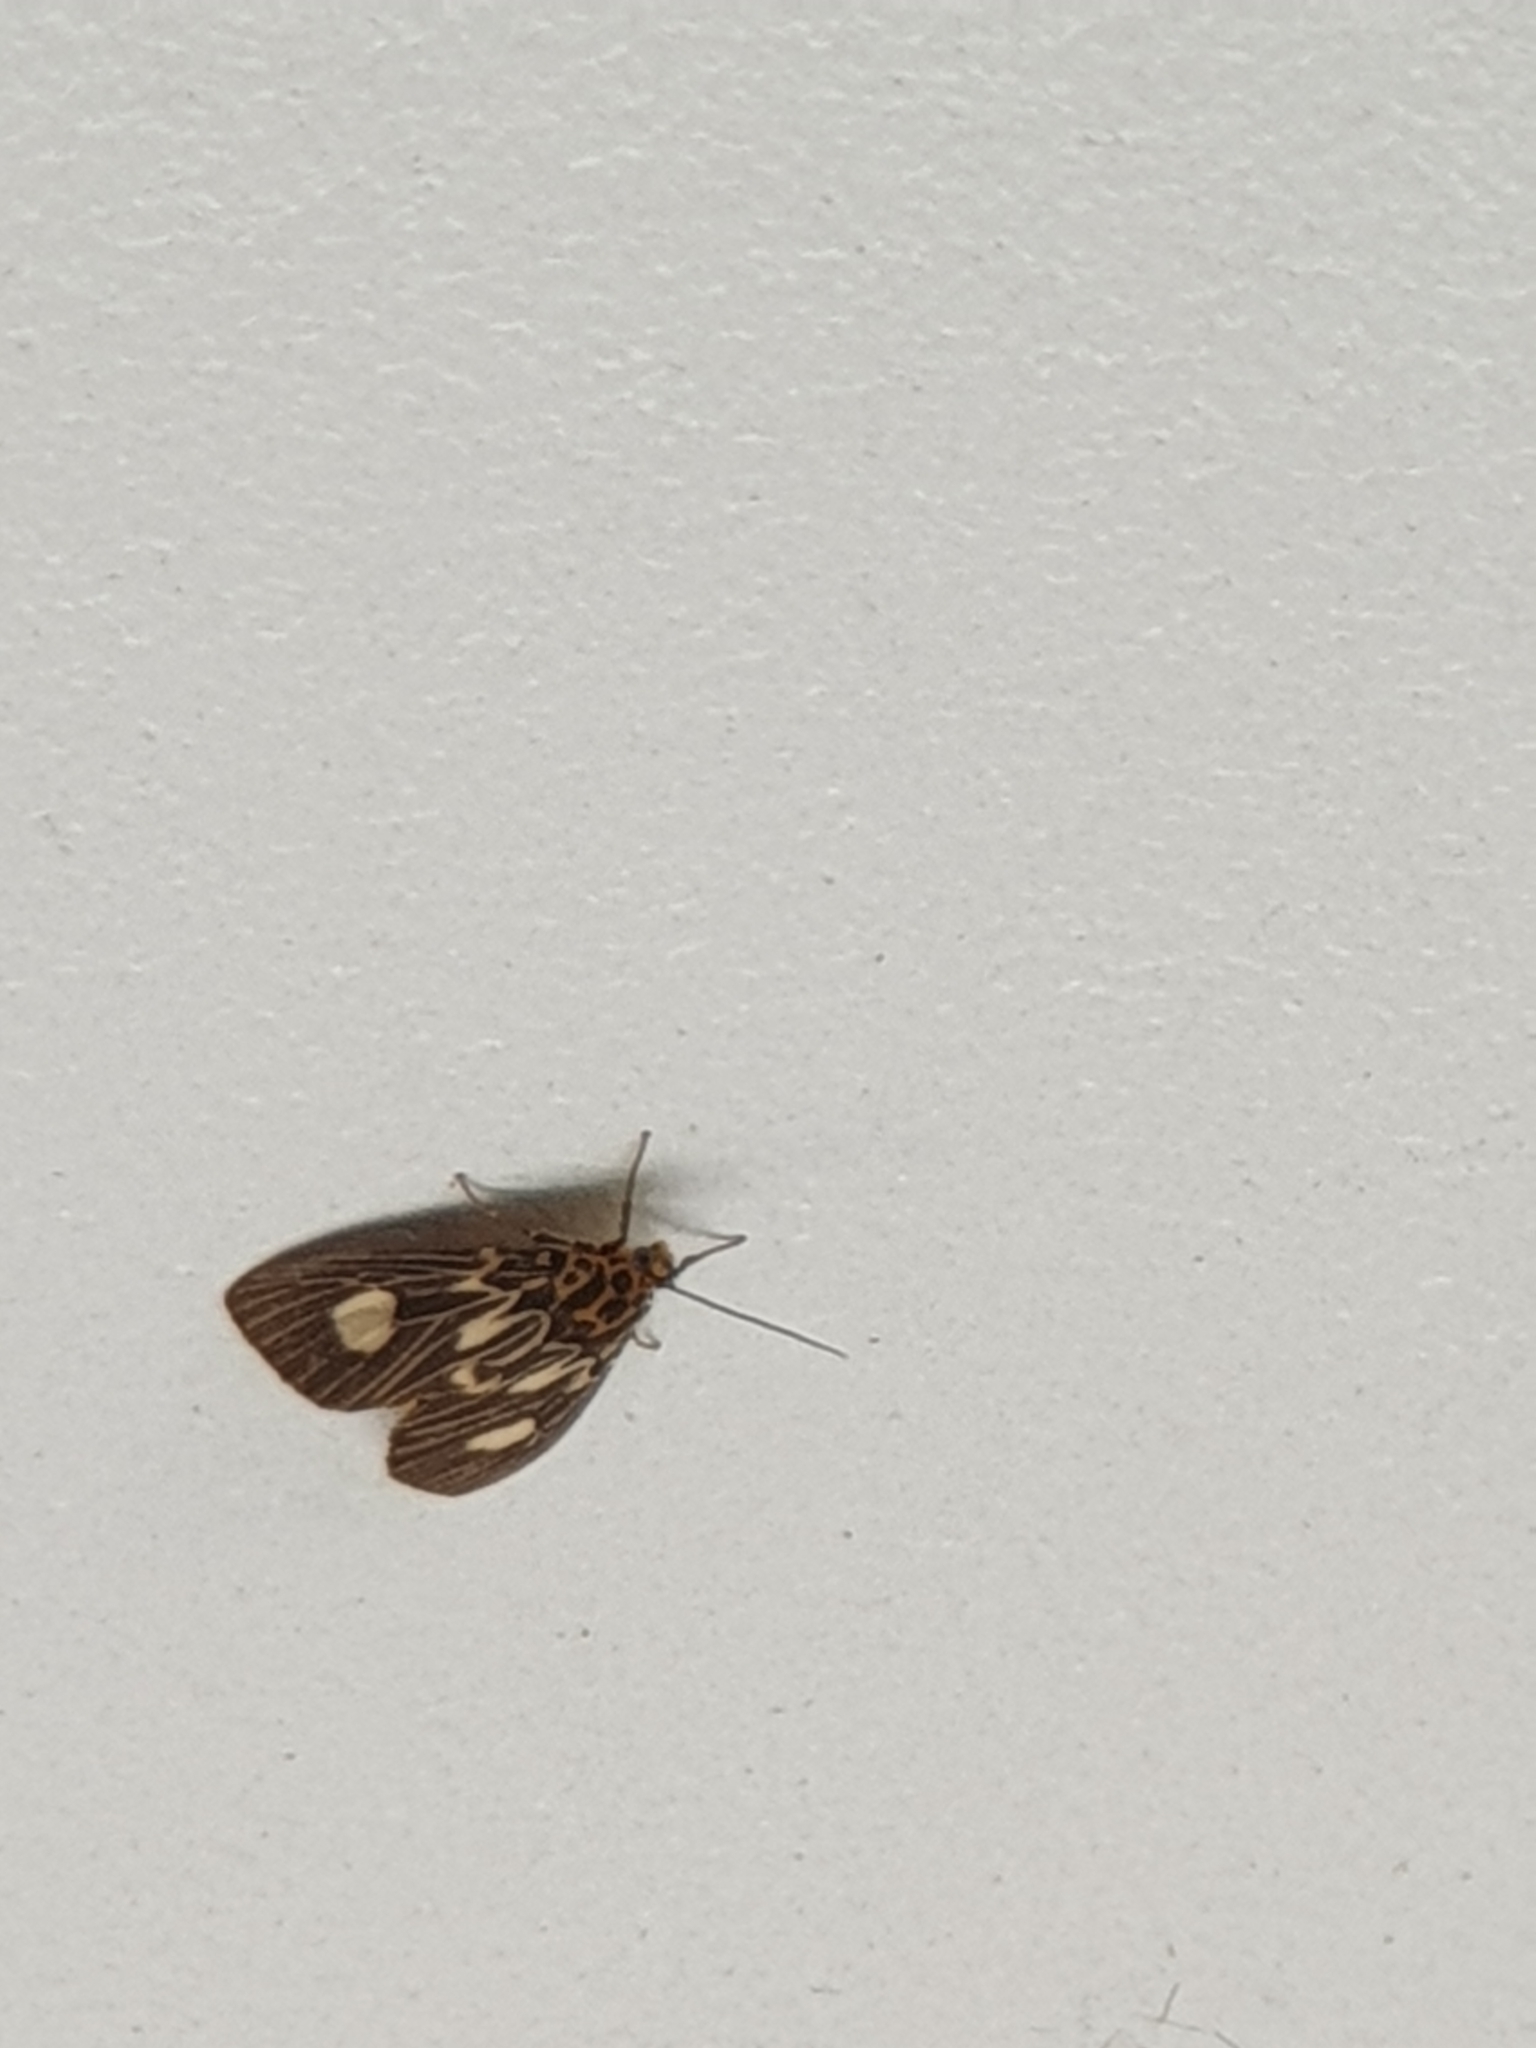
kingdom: Animalia
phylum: Arthropoda
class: Insecta
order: Lepidoptera
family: Erebidae
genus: Asota
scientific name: Asota plagiata
